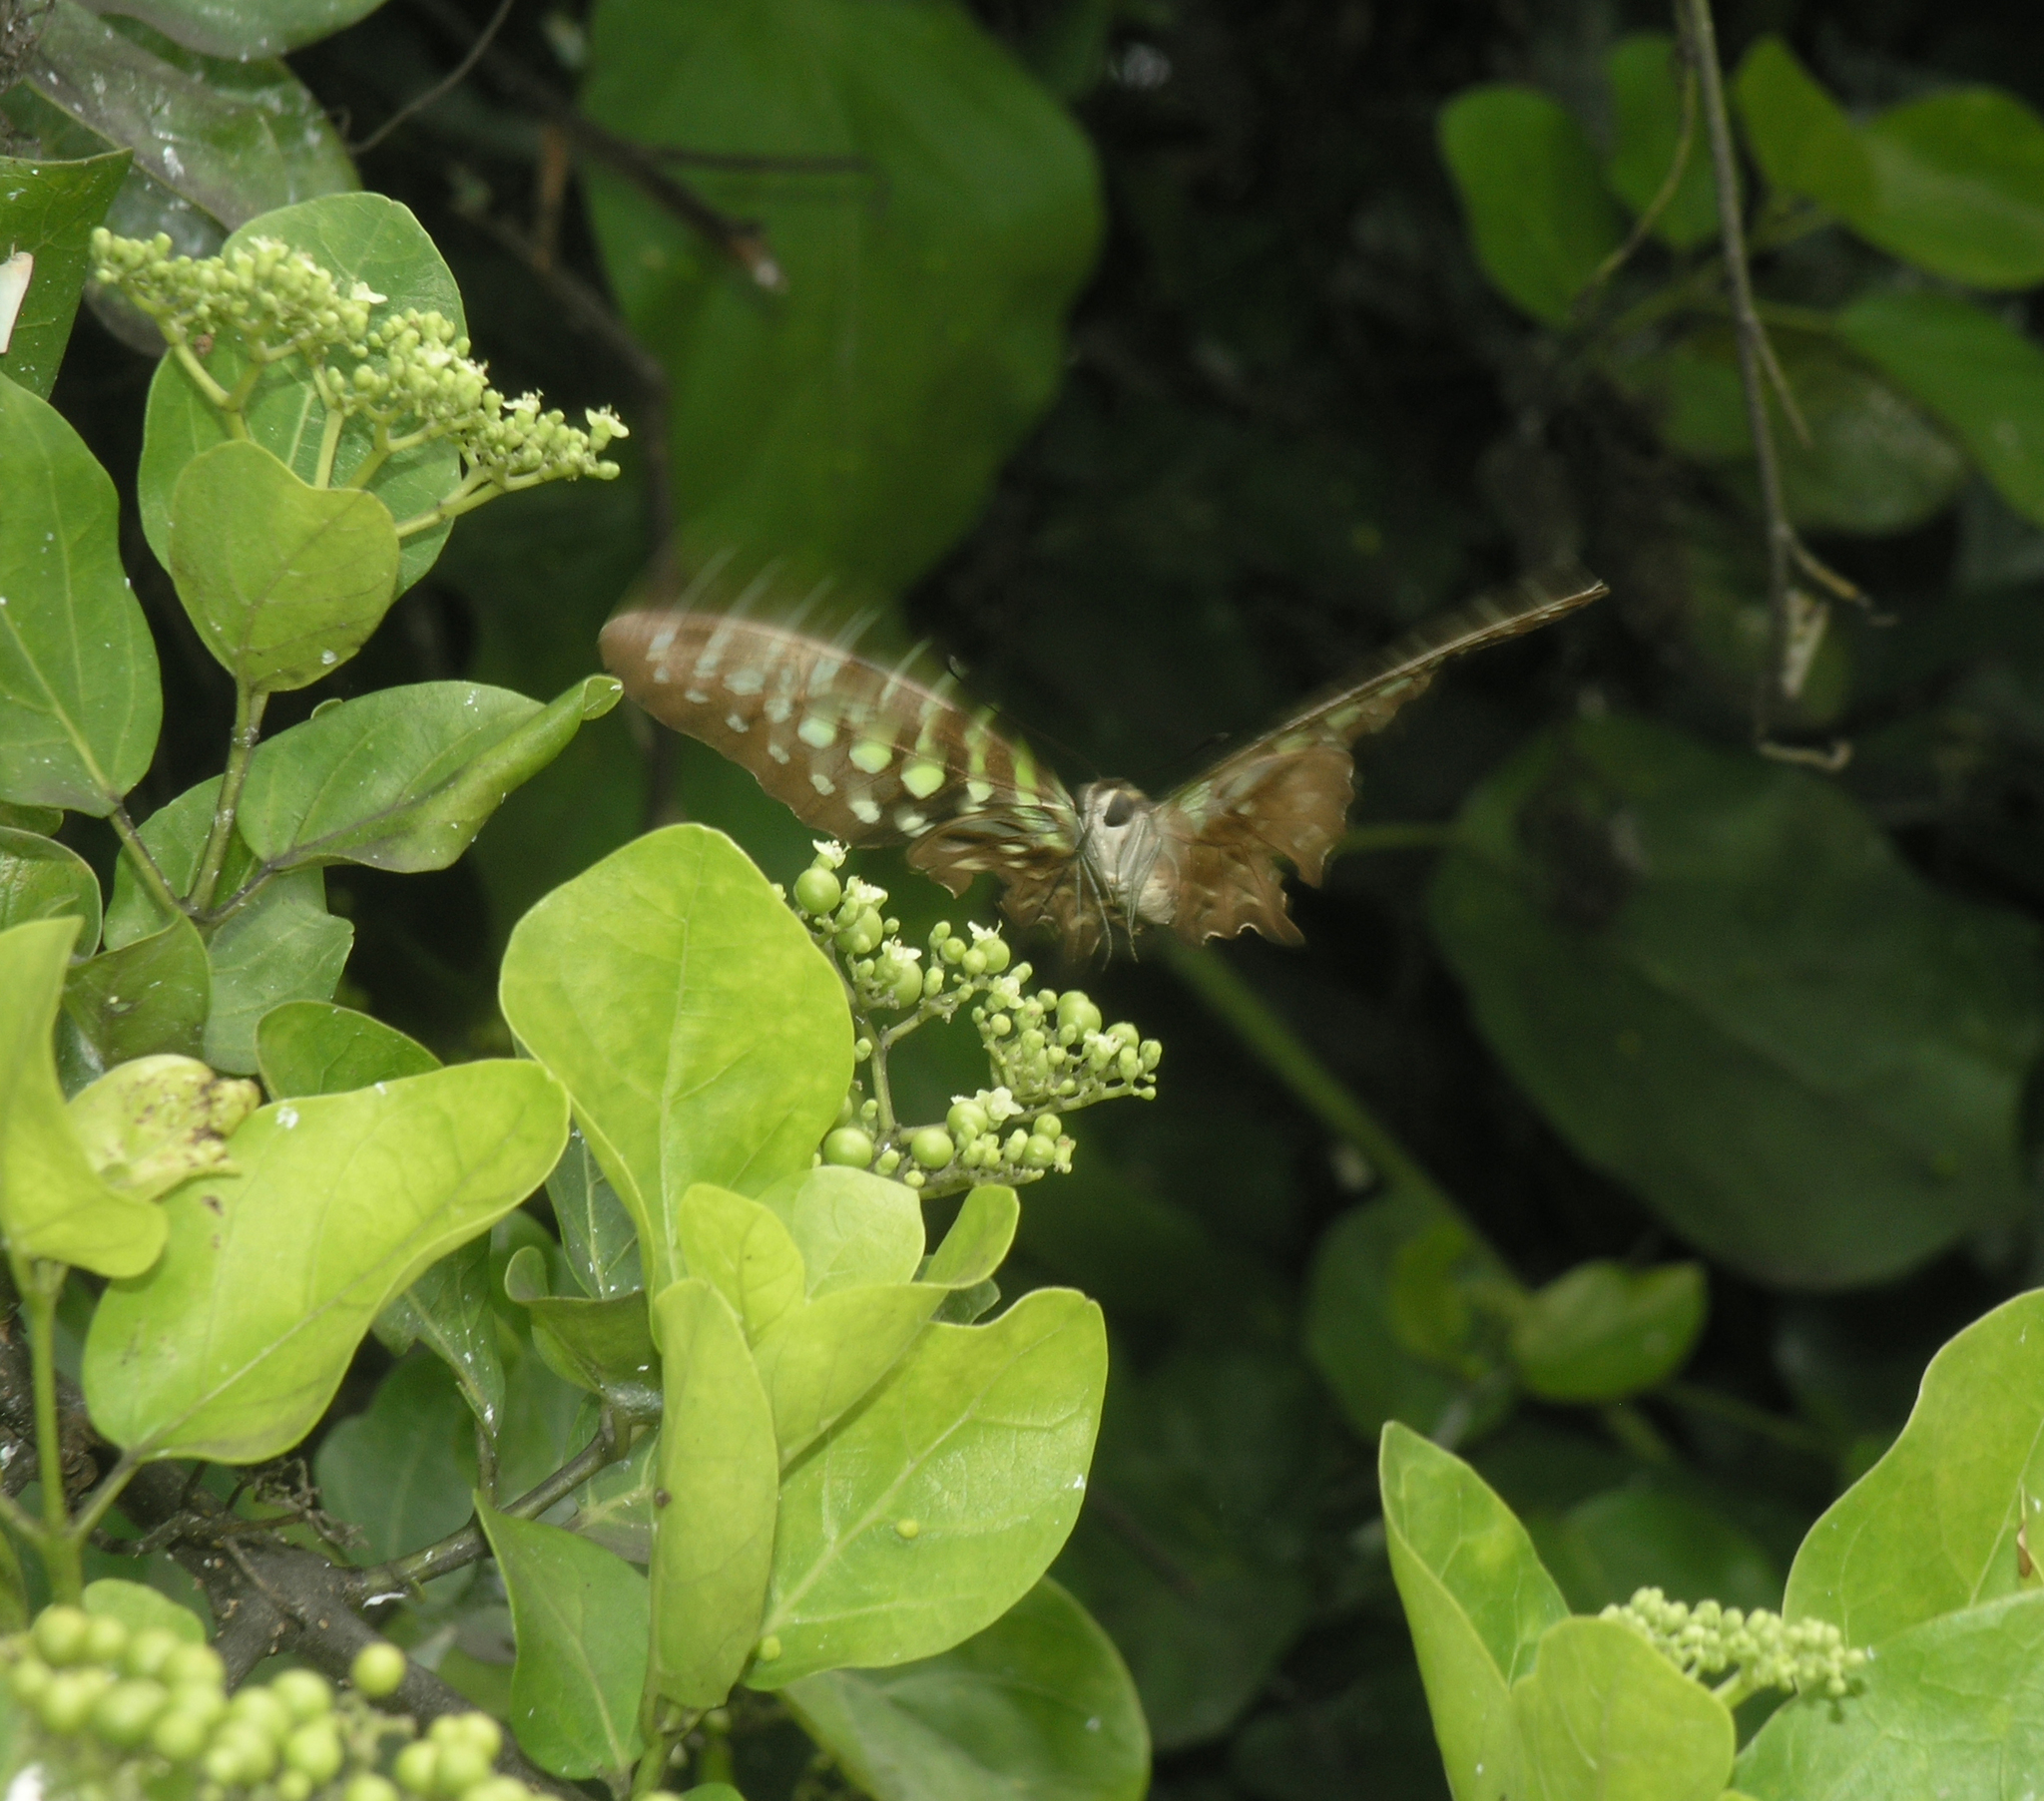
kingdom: Animalia
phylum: Arthropoda
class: Insecta
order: Lepidoptera
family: Papilionidae
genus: Graphium
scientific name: Graphium agamemnon
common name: Tailed jay
